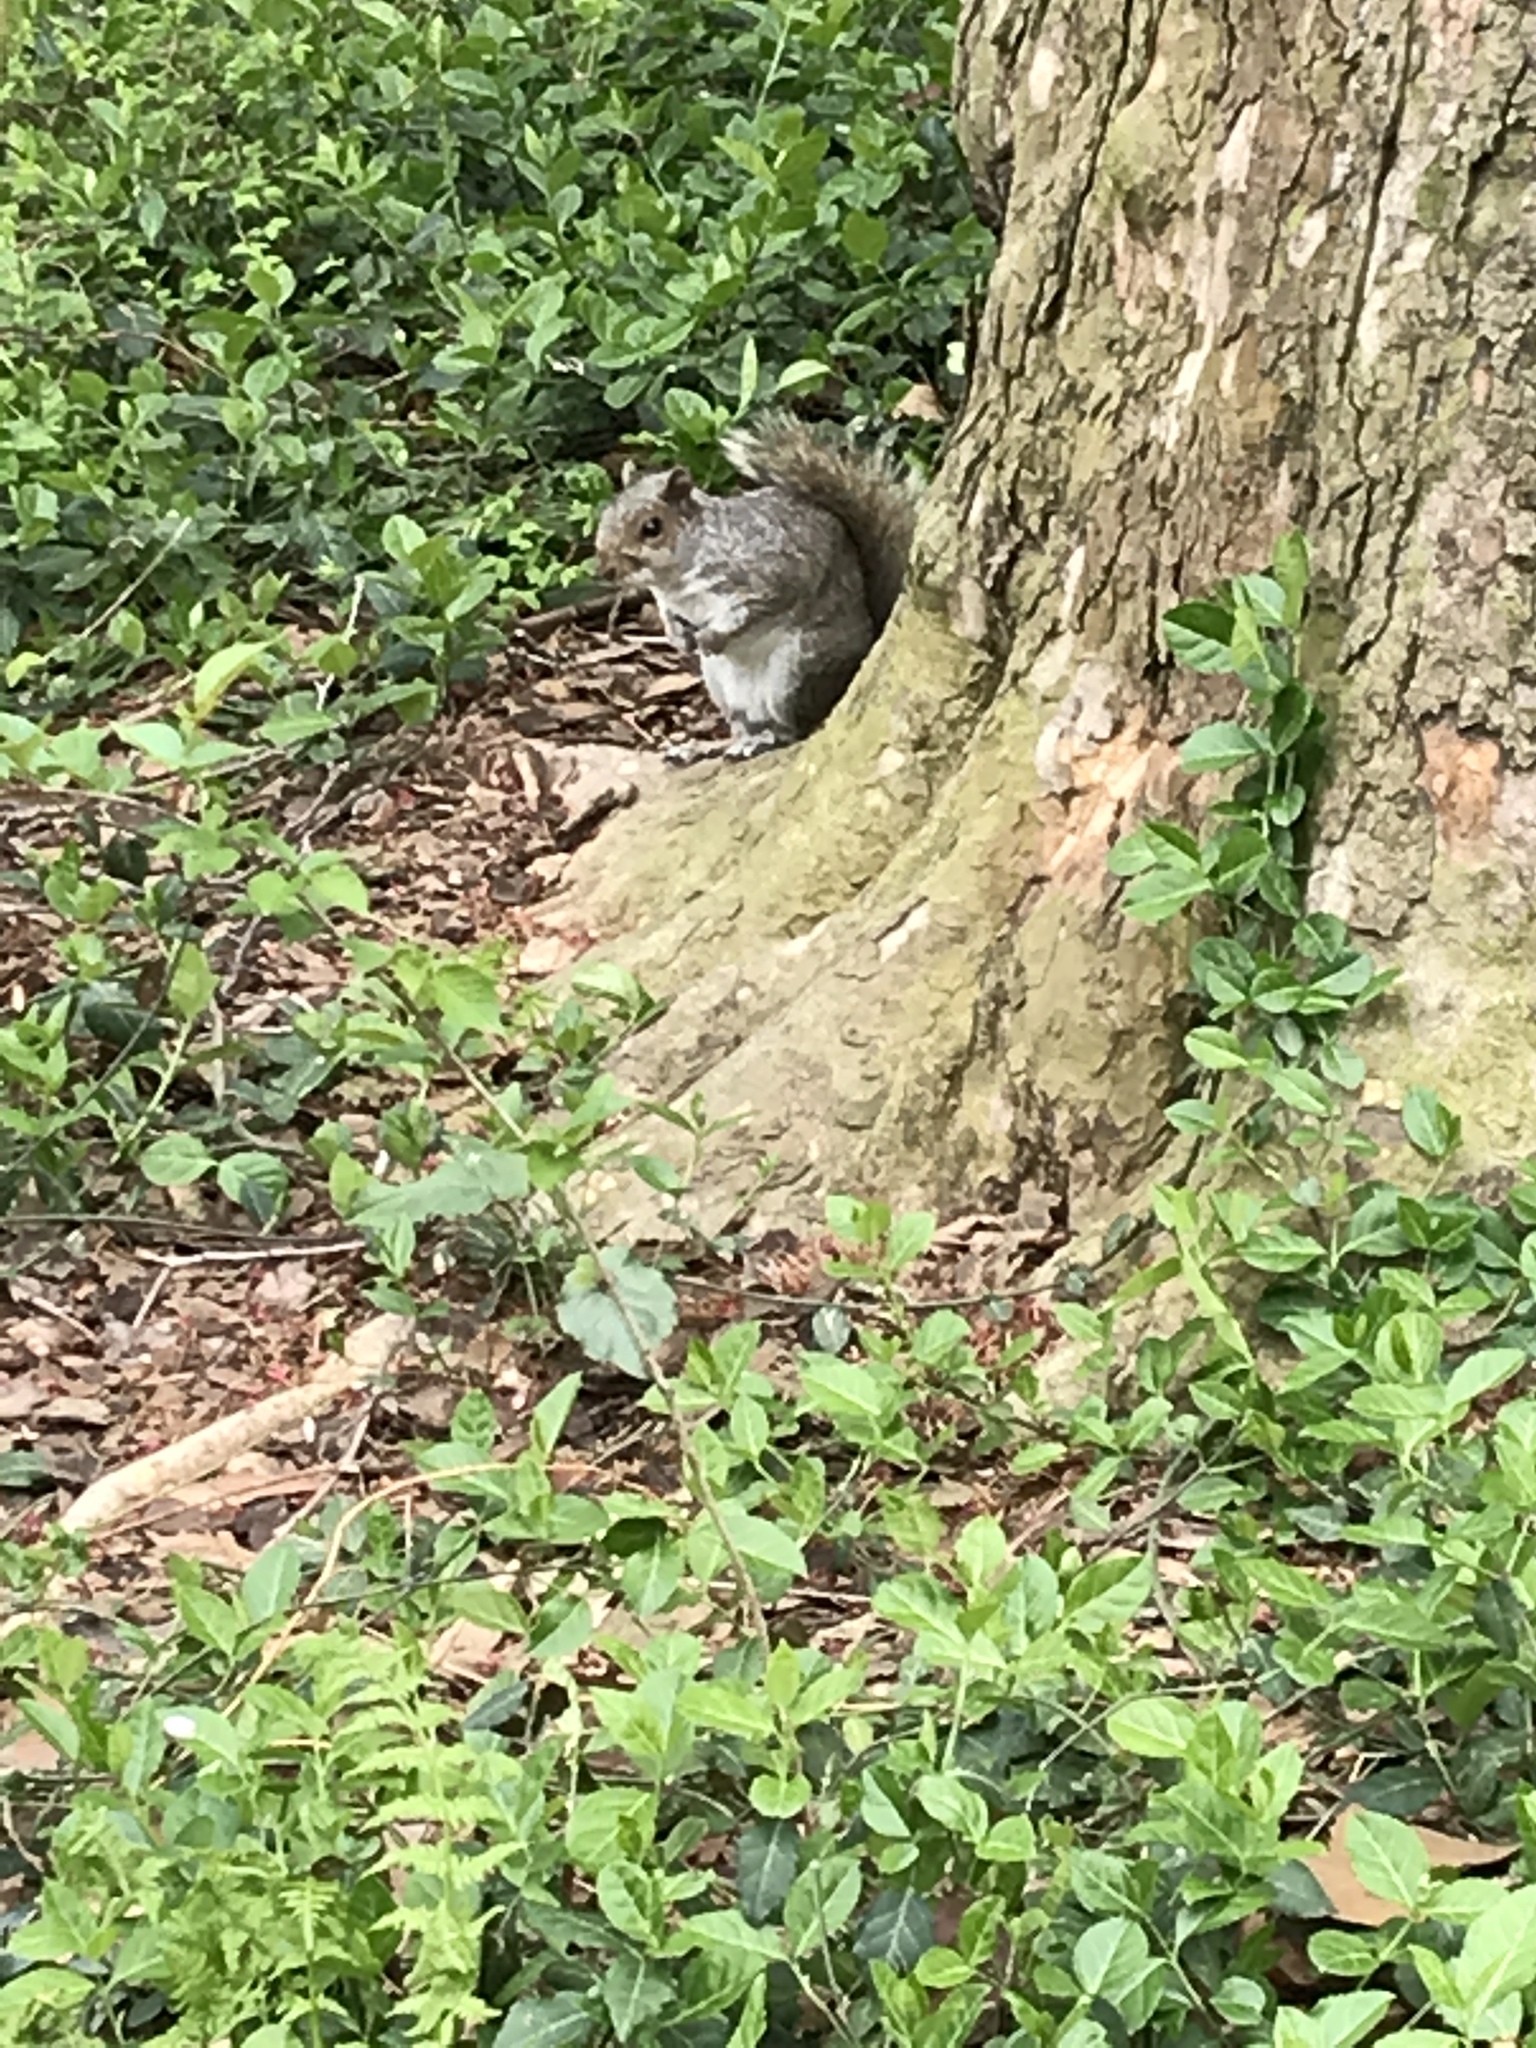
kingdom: Animalia
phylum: Chordata
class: Mammalia
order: Rodentia
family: Sciuridae
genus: Sciurus
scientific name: Sciurus carolinensis
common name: Eastern gray squirrel
